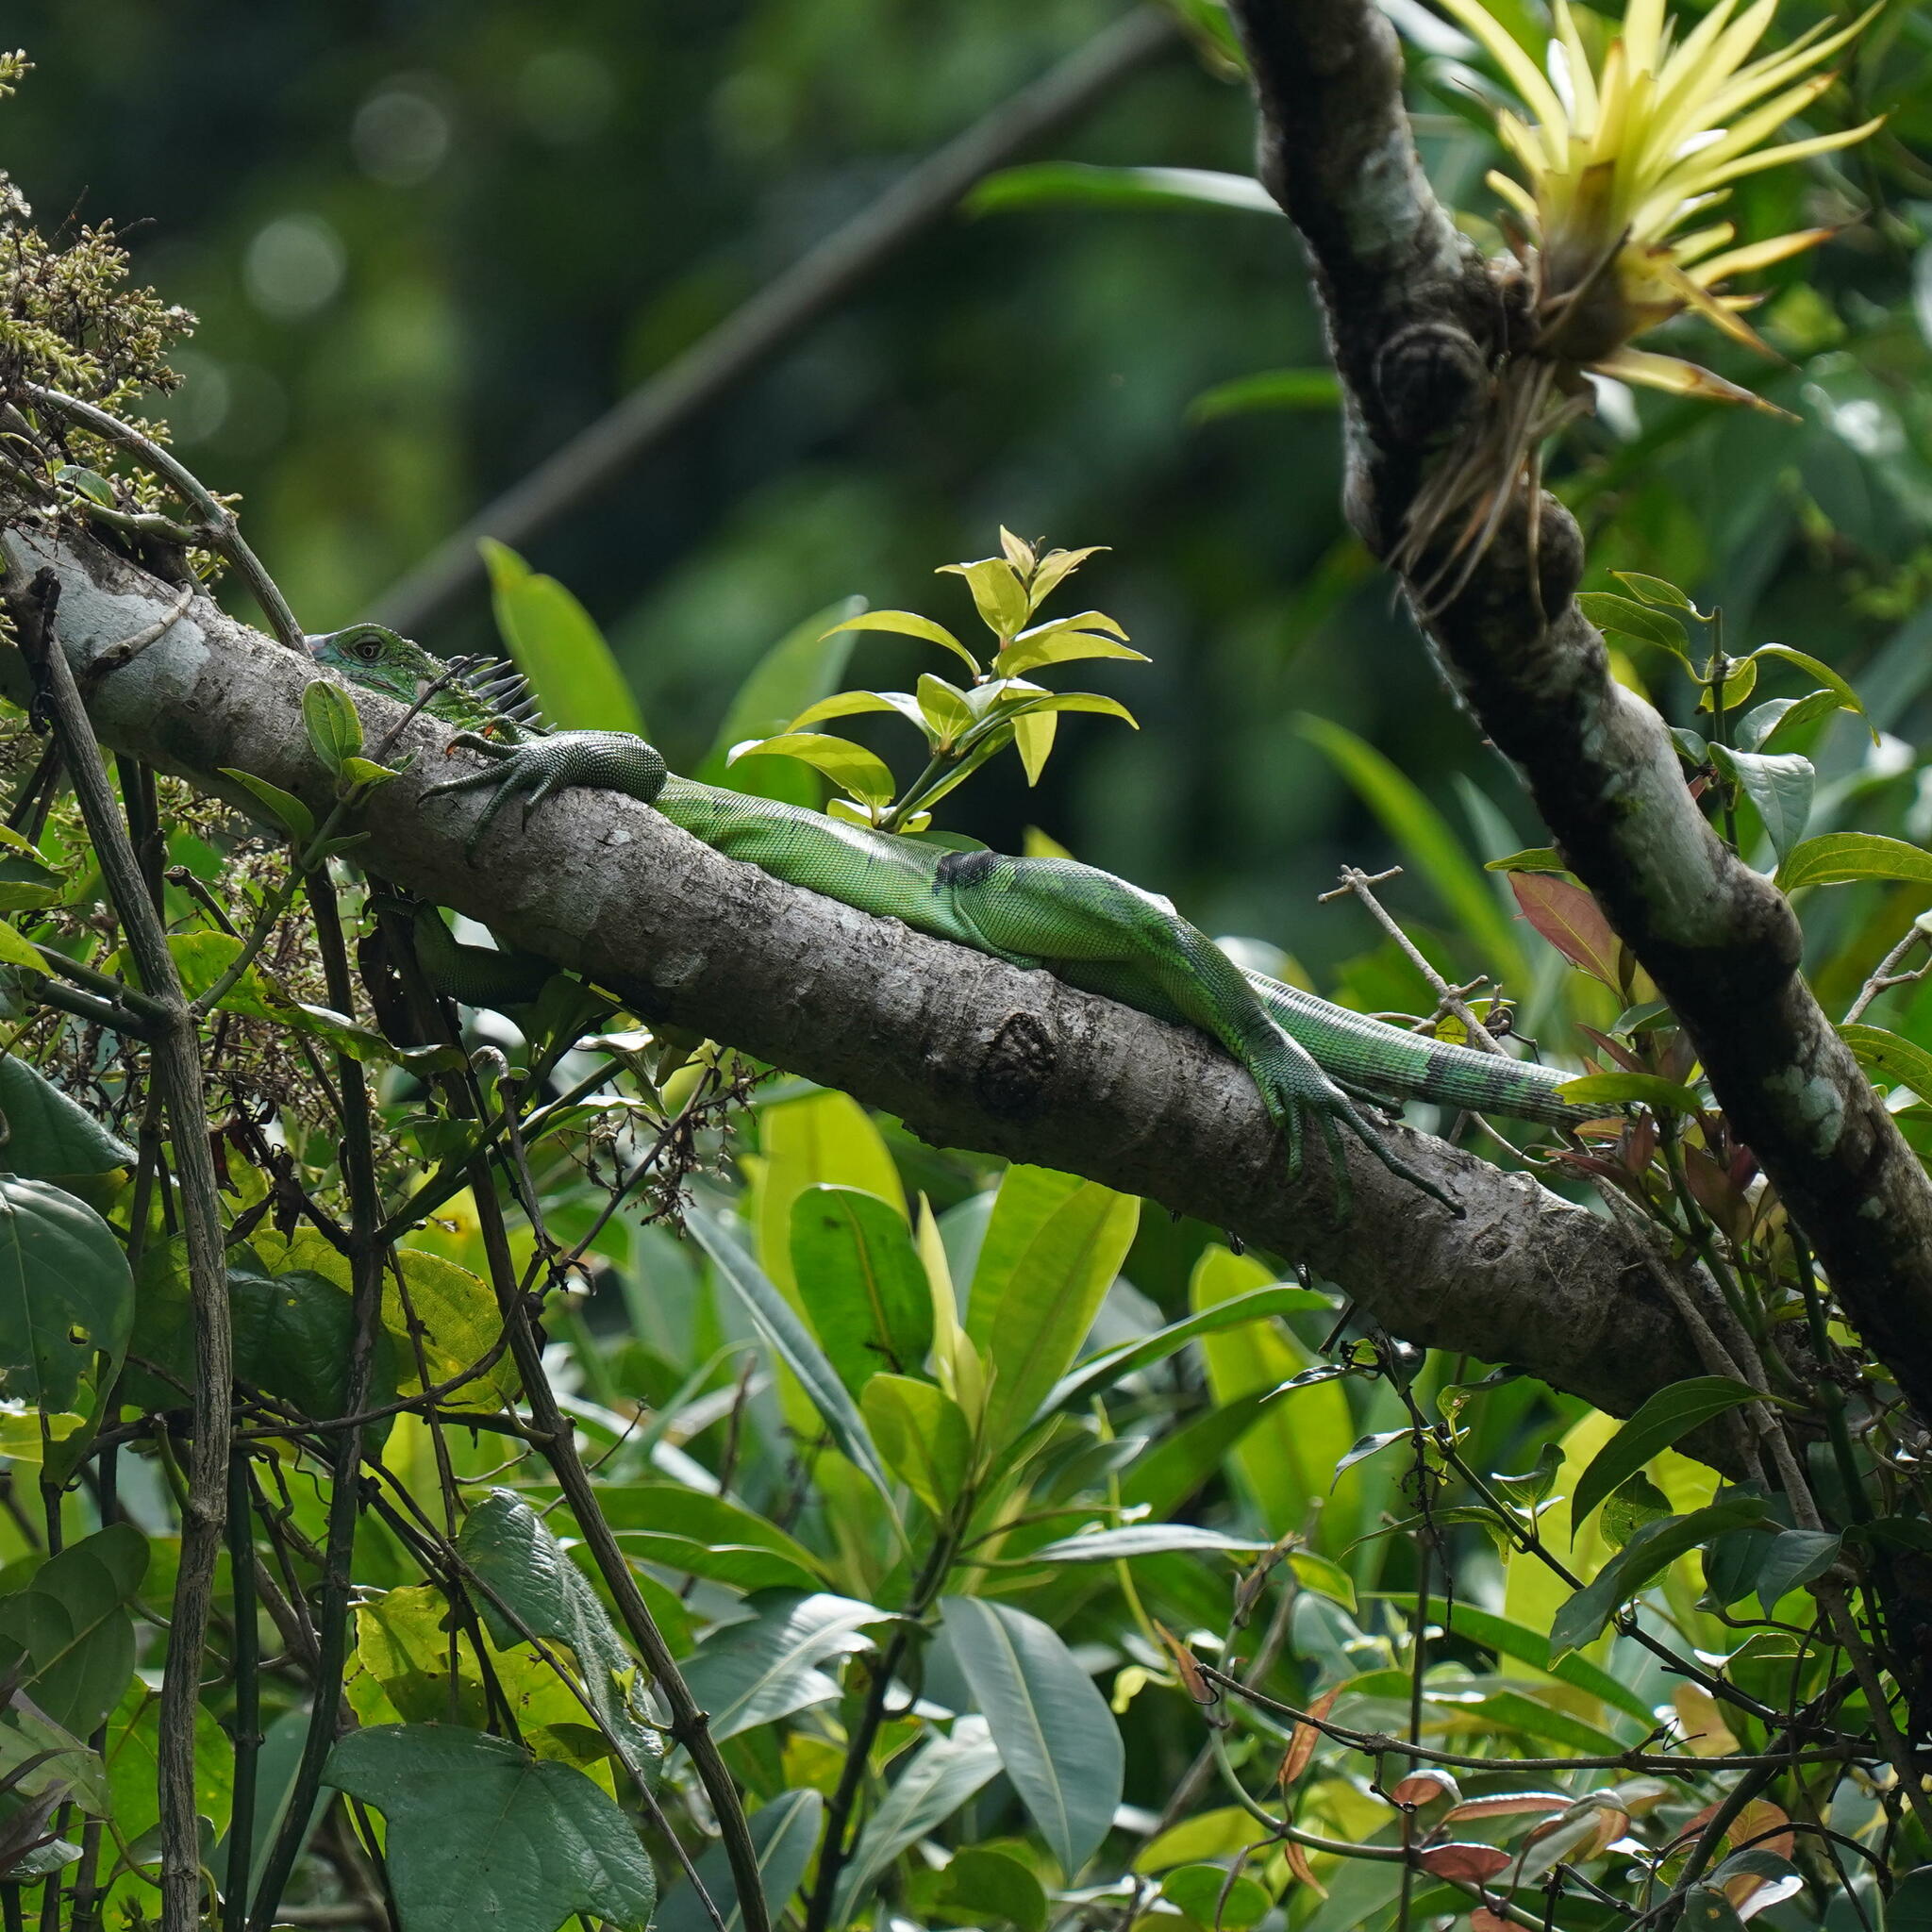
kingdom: Animalia
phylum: Chordata
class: Squamata
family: Iguanidae
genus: Iguana
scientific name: Iguana iguana
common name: Green iguana
